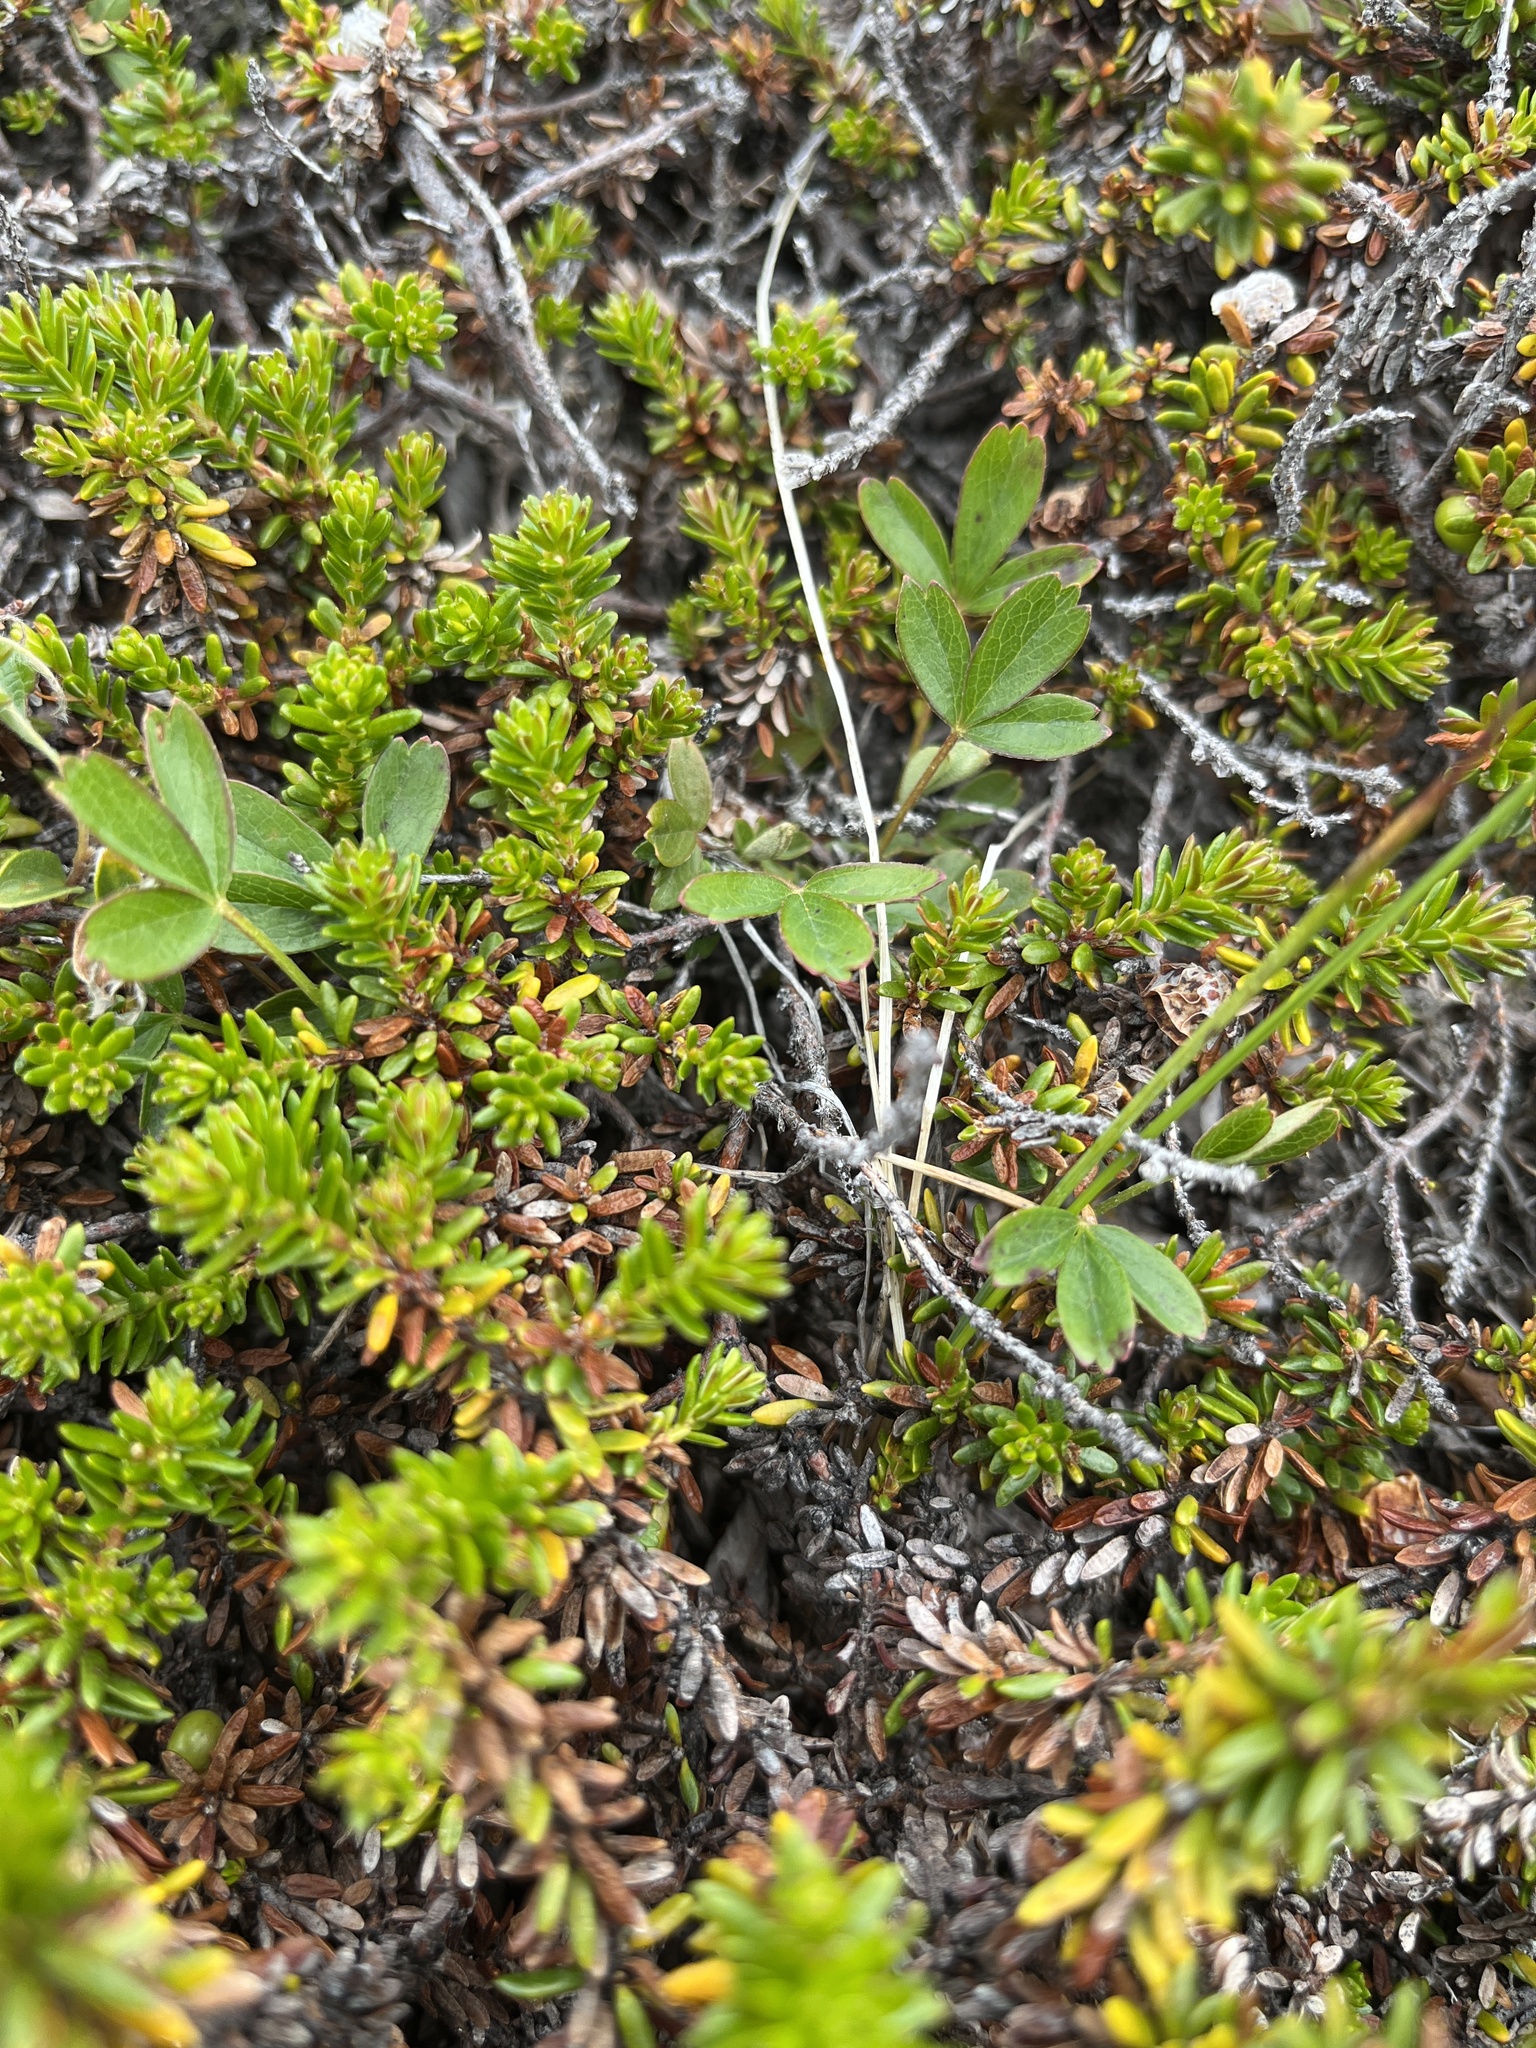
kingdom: Plantae
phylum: Tracheophyta
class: Magnoliopsida
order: Rosales
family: Rosaceae
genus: Sibbaldia
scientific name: Sibbaldia tridentata
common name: Three-toothed cinquefoil
